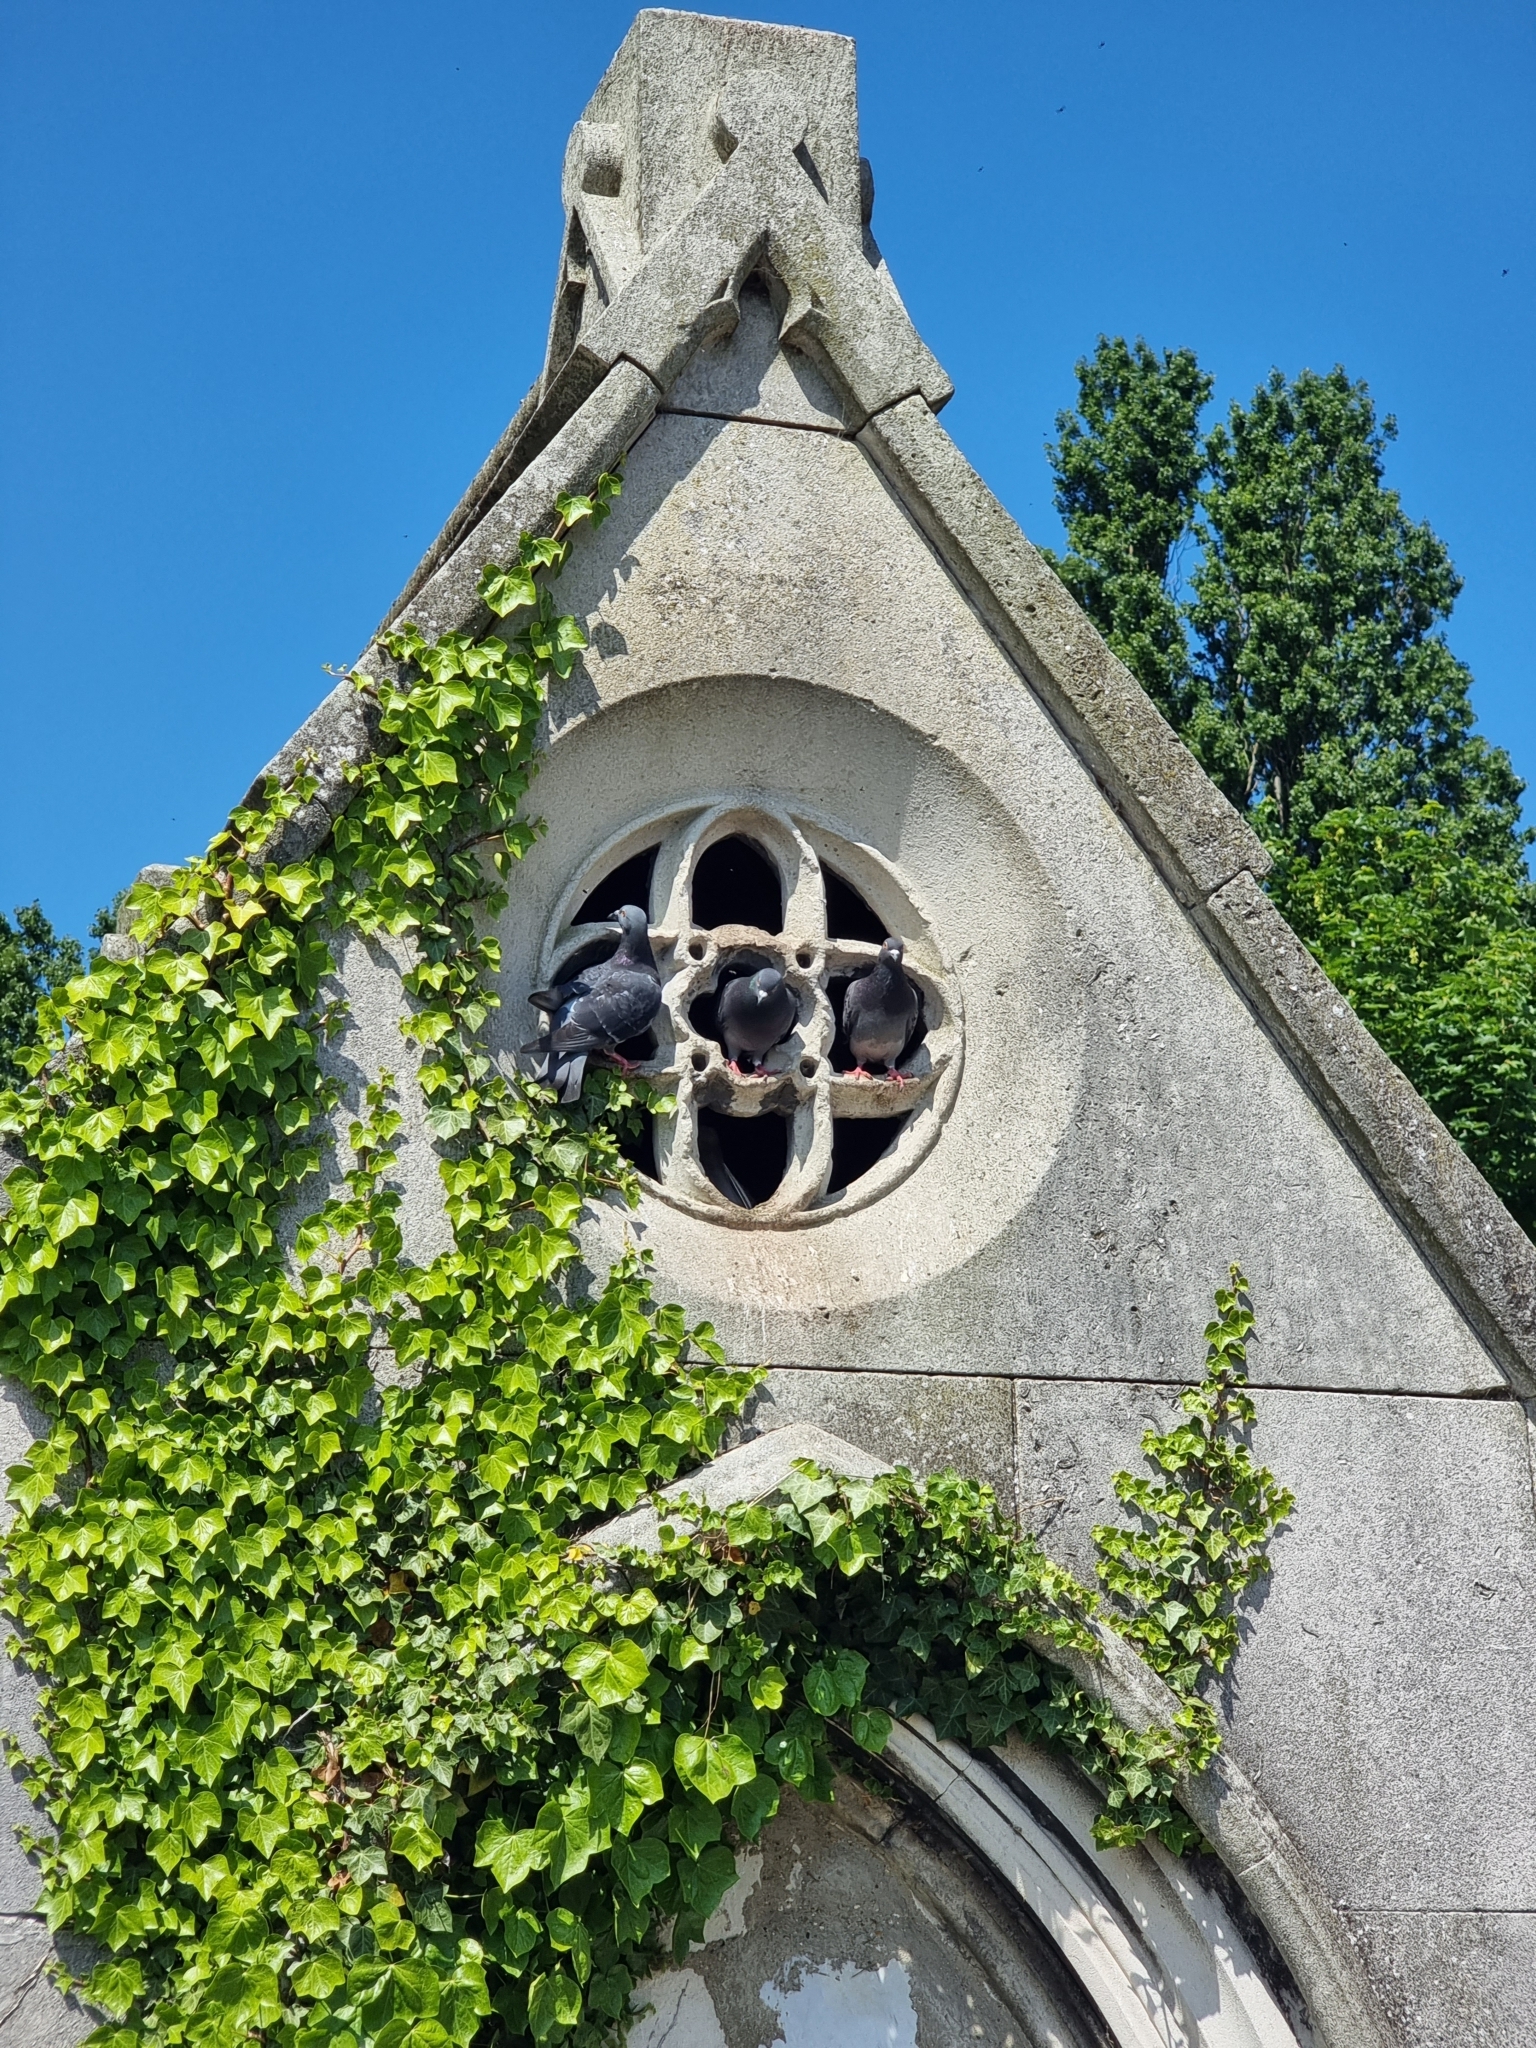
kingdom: Animalia
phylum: Chordata
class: Aves
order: Columbiformes
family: Columbidae
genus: Columba
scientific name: Columba livia
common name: Rock pigeon
